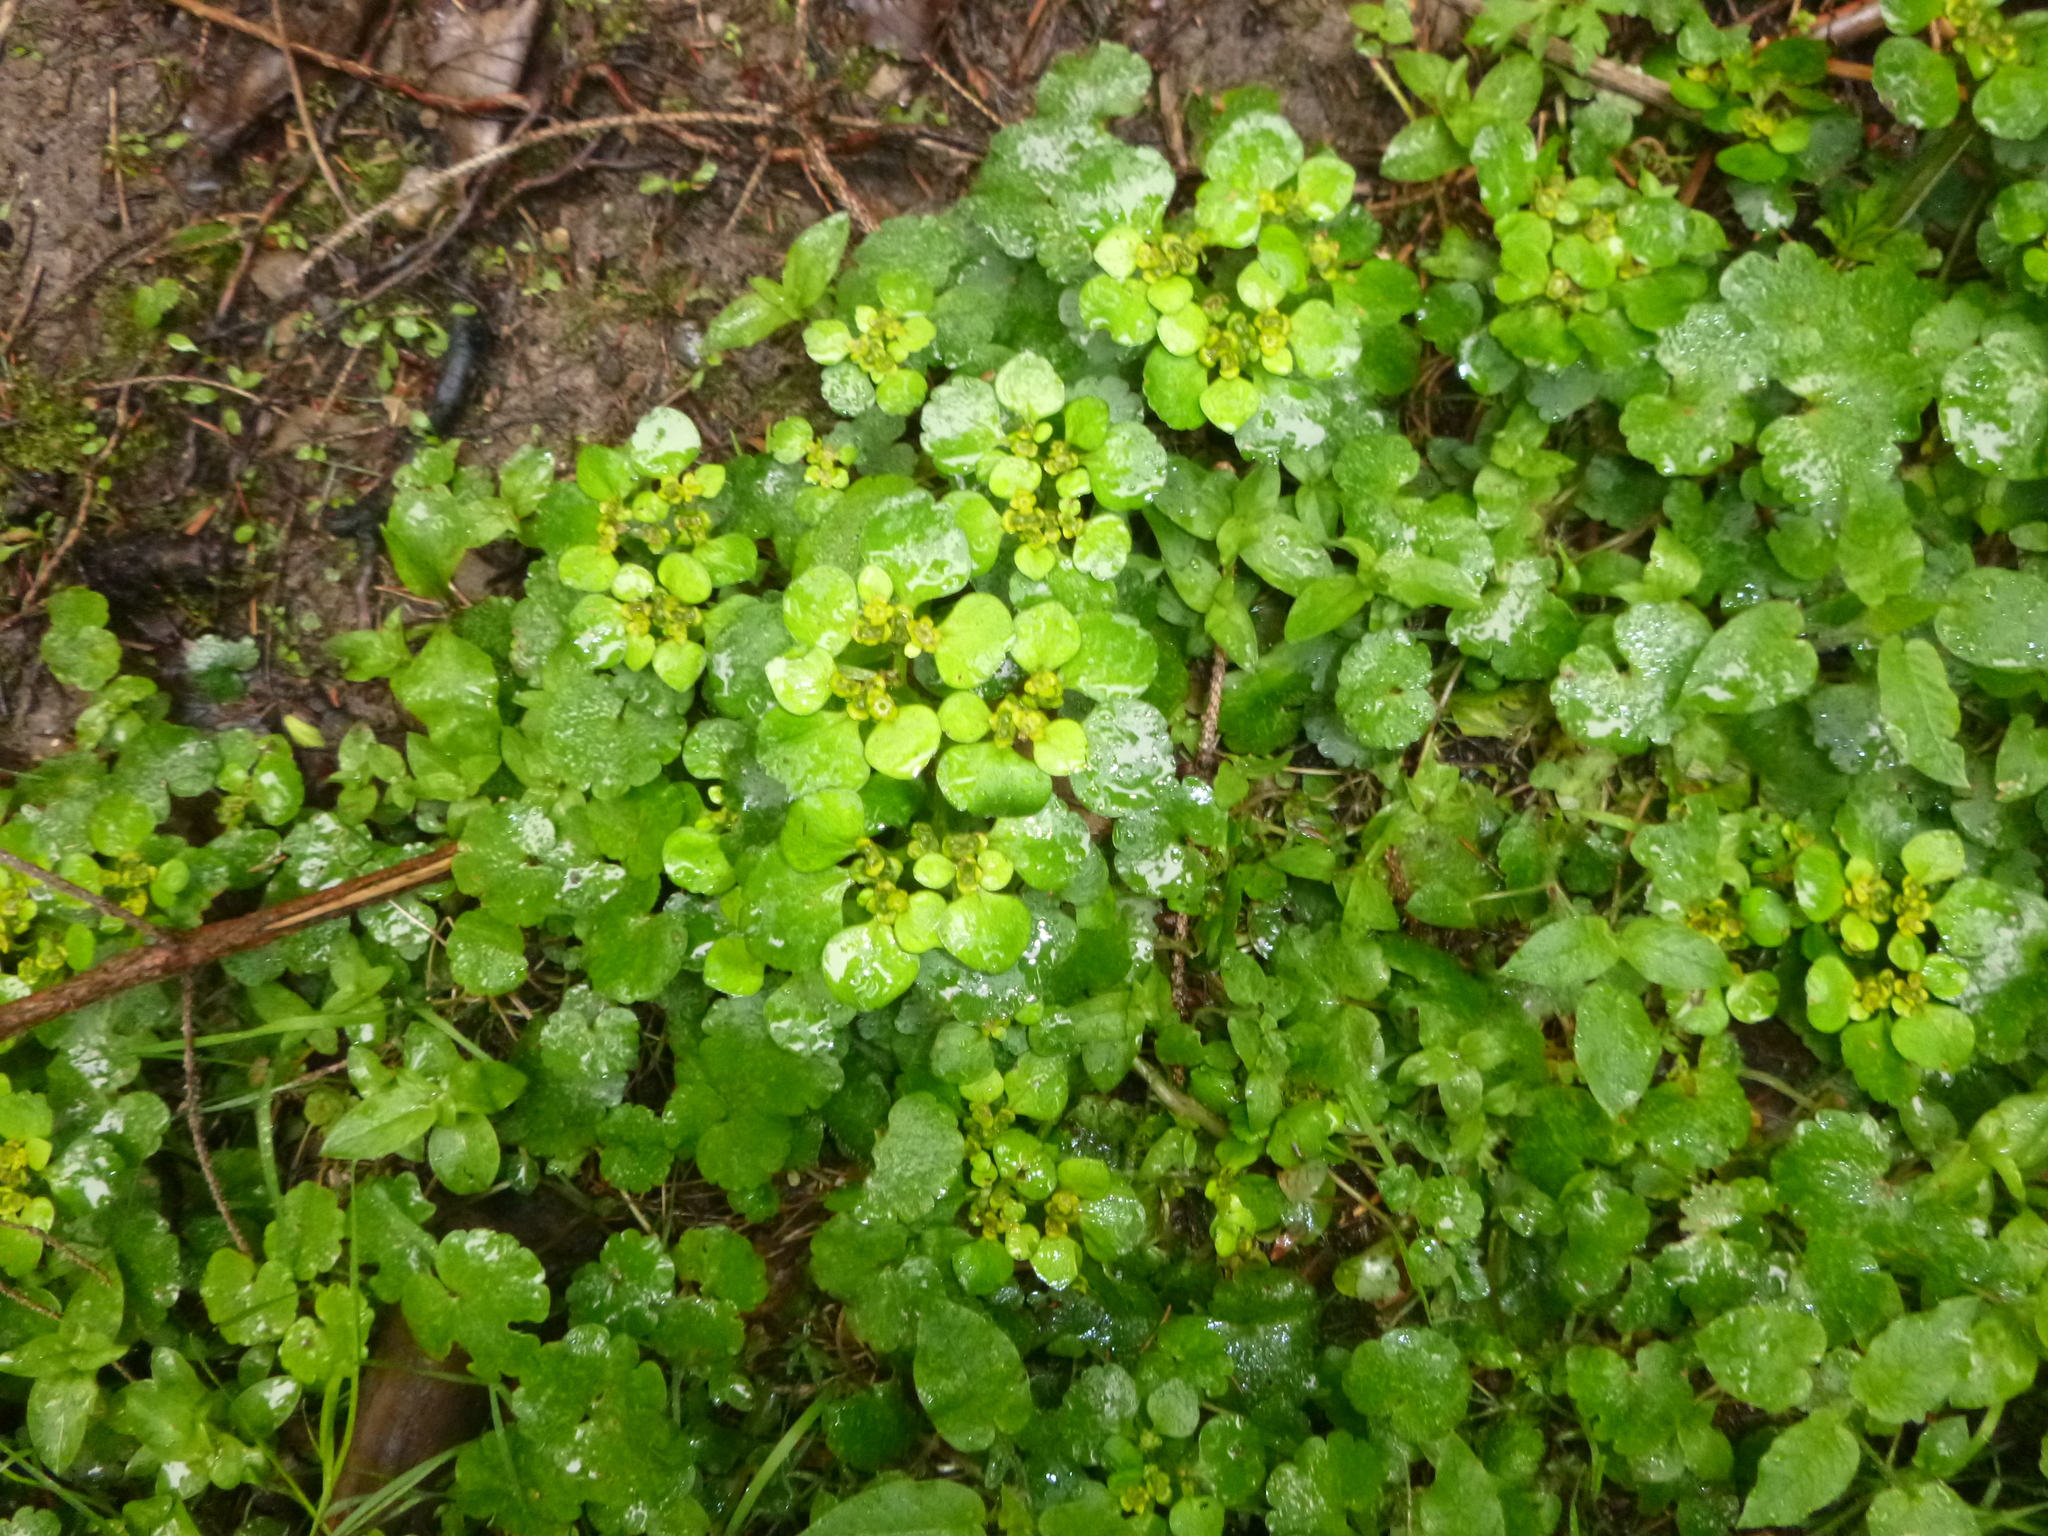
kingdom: Plantae
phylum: Tracheophyta
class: Magnoliopsida
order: Saxifragales
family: Saxifragaceae
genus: Chrysosplenium
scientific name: Chrysosplenium alternifolium
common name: Alternate-leaved golden-saxifrage
